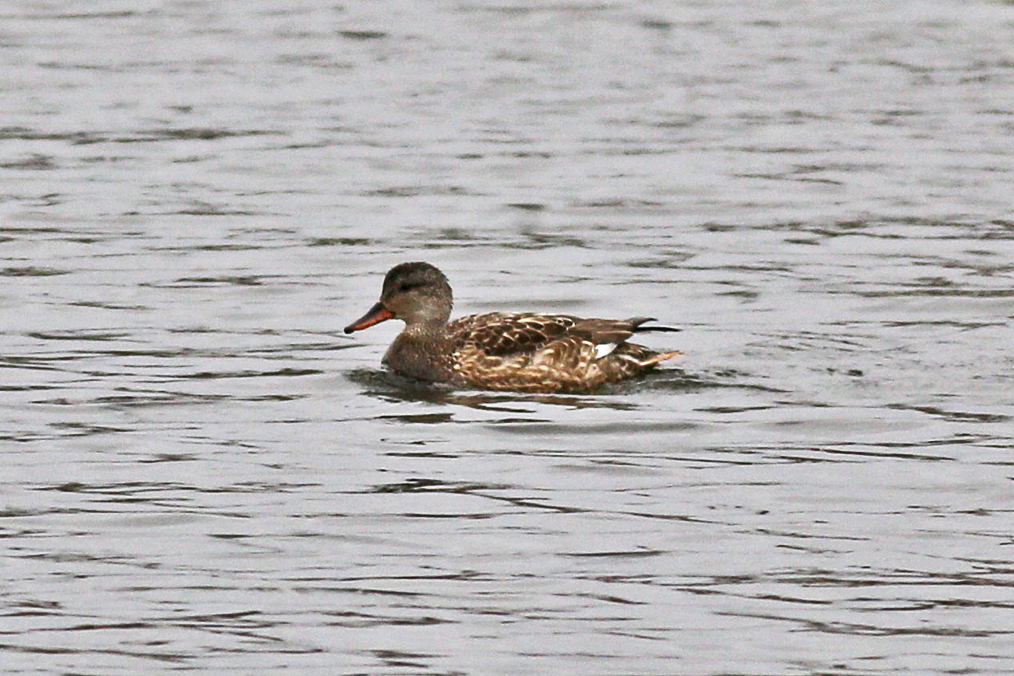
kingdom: Animalia
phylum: Chordata
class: Aves
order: Anseriformes
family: Anatidae
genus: Mareca
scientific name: Mareca strepera
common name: Gadwall
